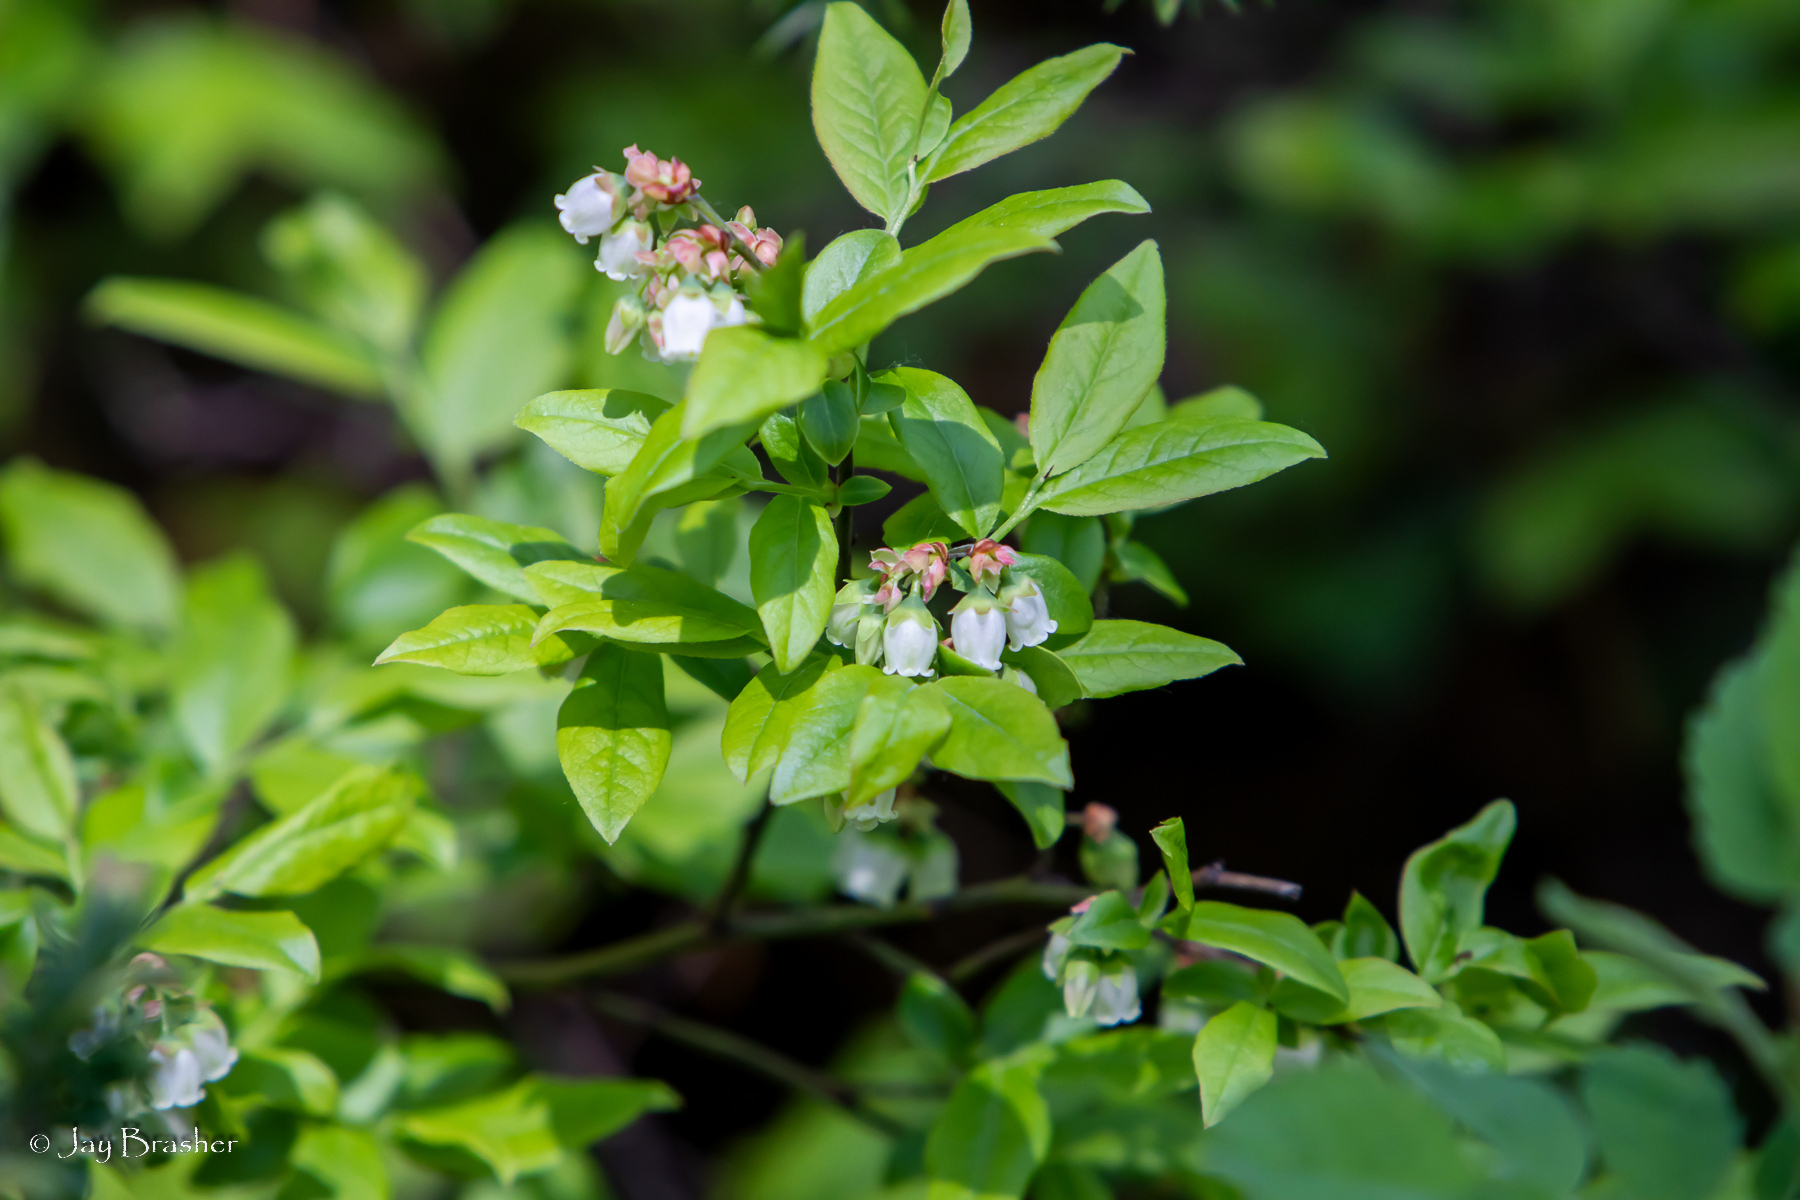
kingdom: Plantae
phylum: Tracheophyta
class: Magnoliopsida
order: Ericales
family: Ericaceae
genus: Vaccinium
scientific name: Vaccinium angustifolium
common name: Early lowbush blueberry
